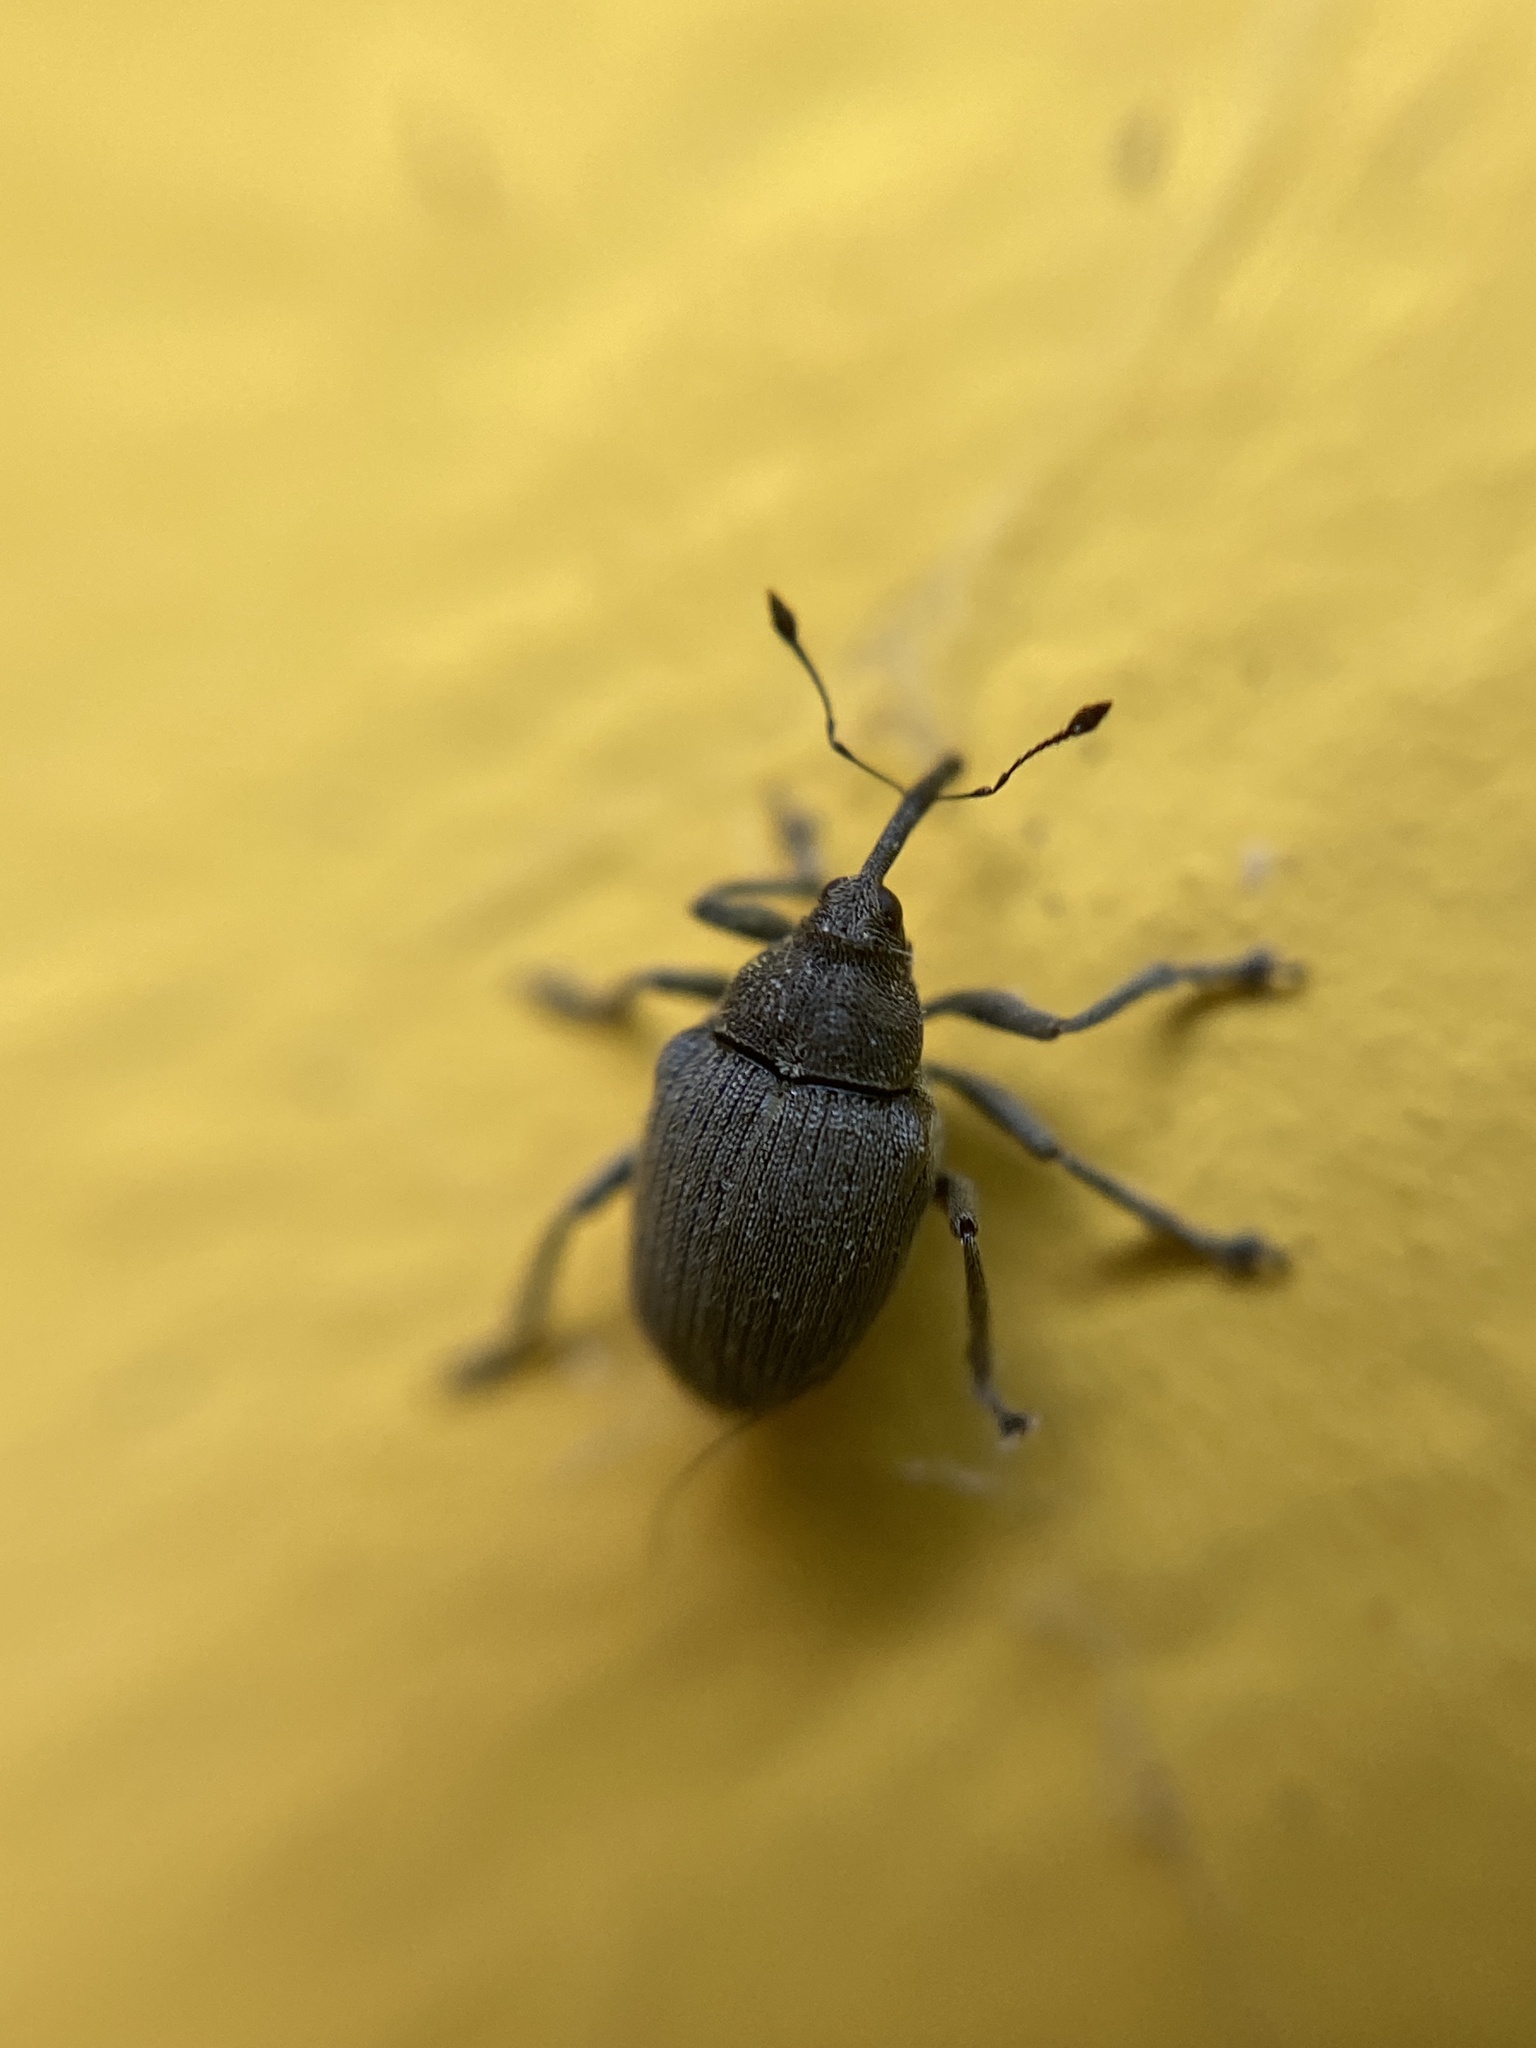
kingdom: Animalia
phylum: Arthropoda
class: Insecta
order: Coleoptera
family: Curculionidae
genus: Ceutorhynchus
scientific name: Ceutorhynchus napi
